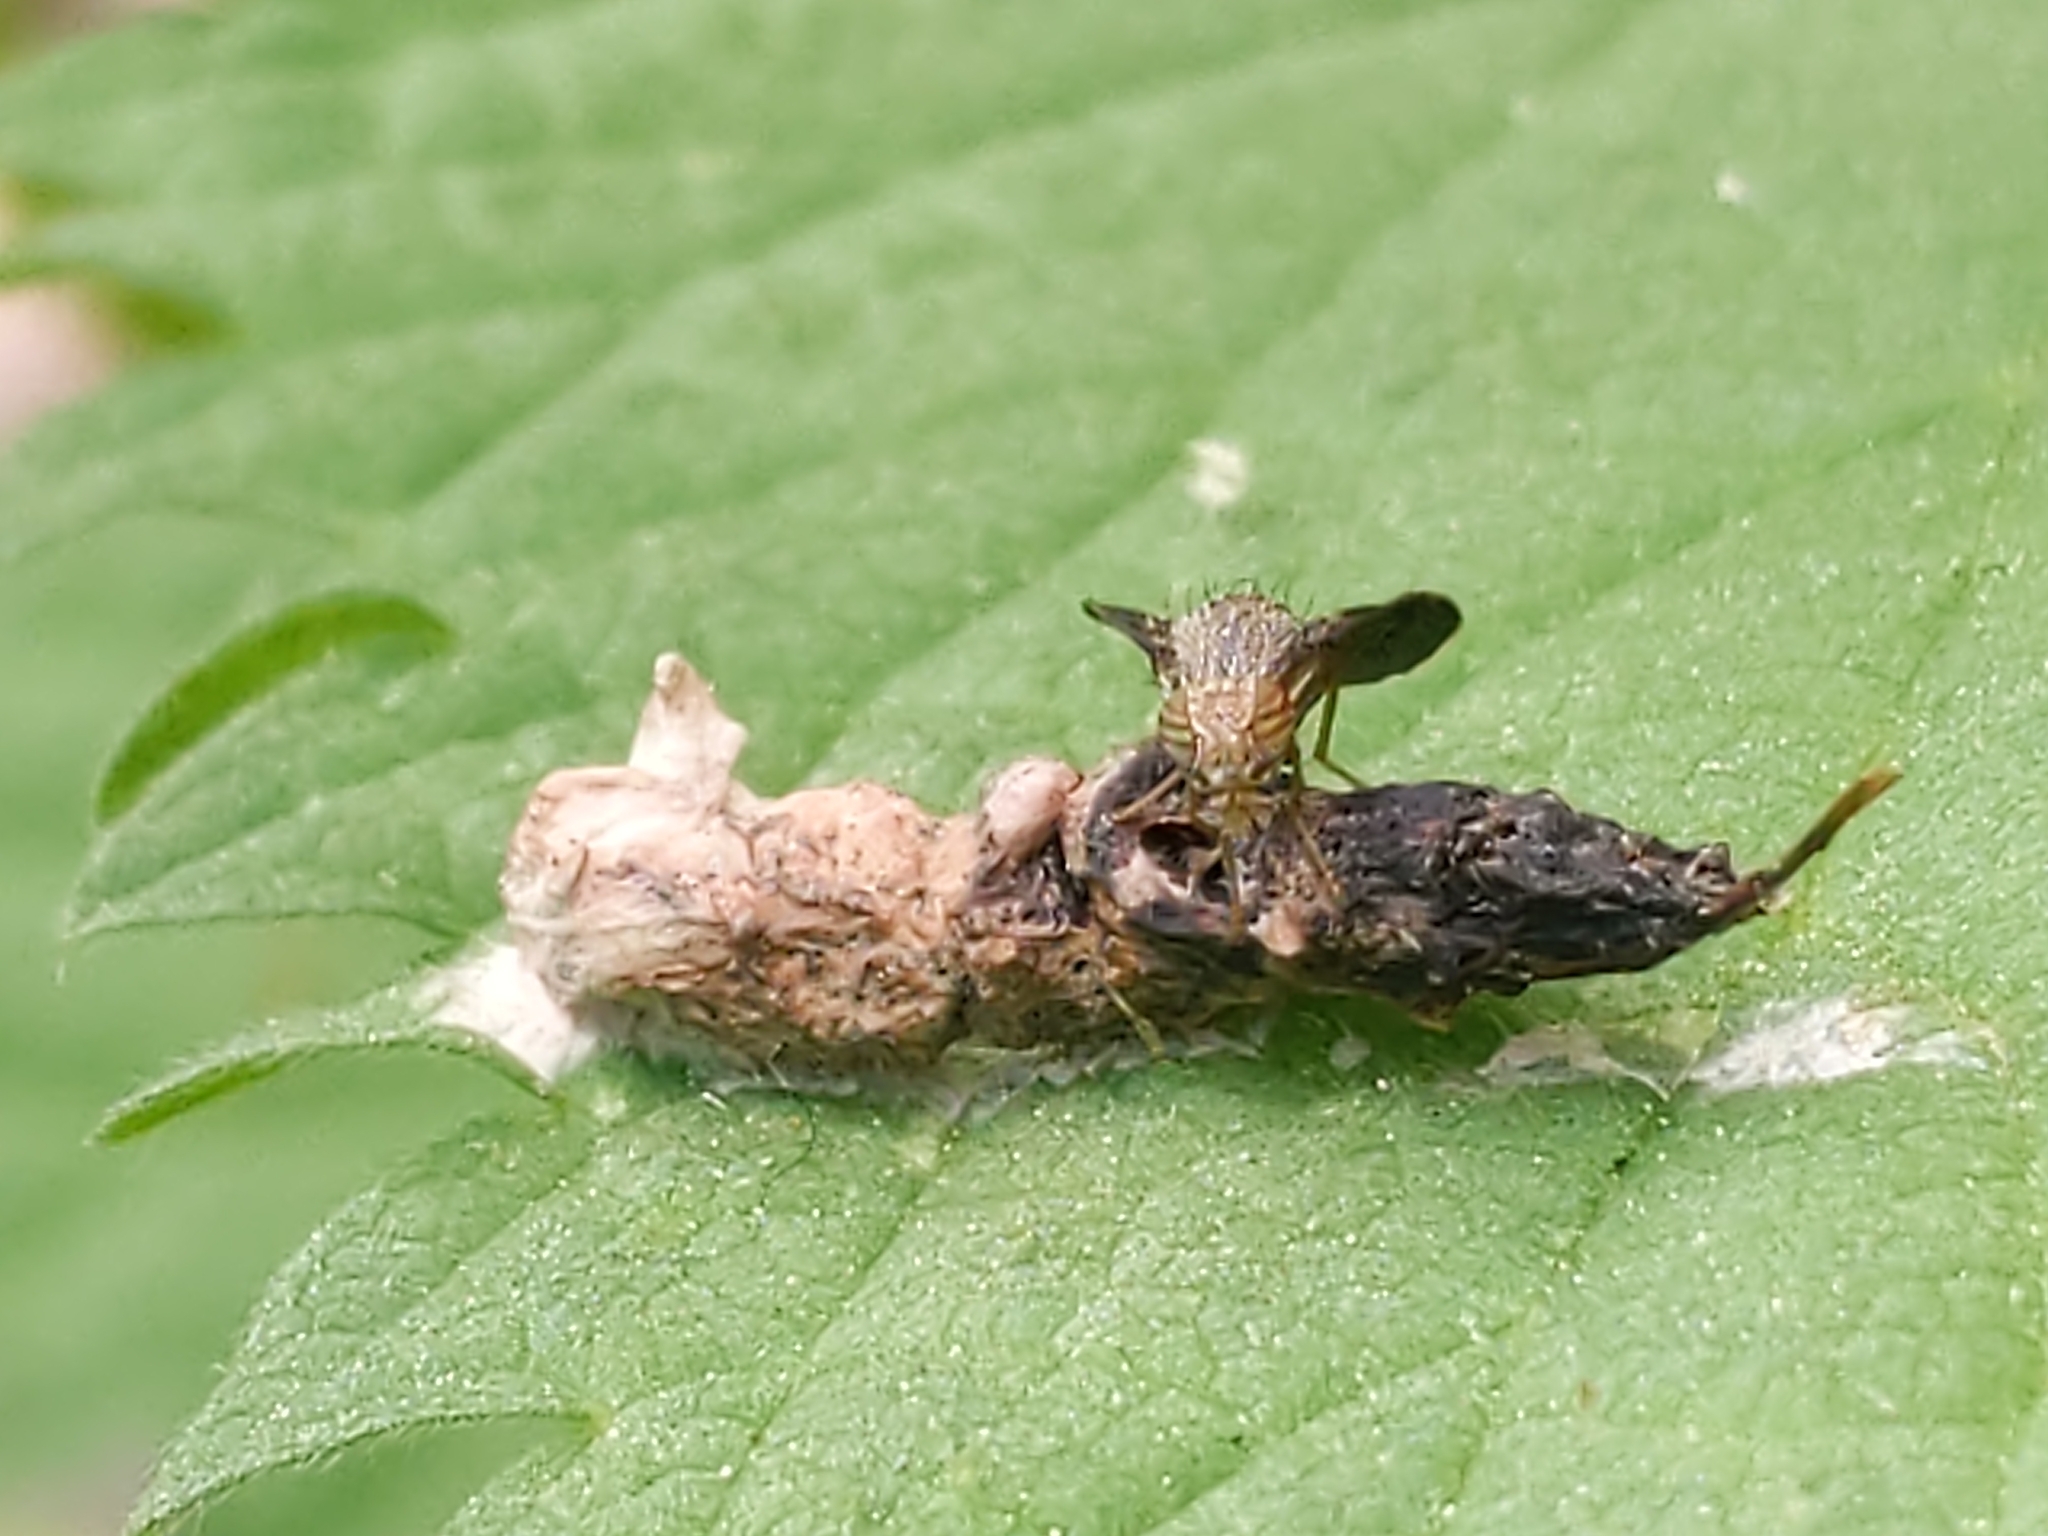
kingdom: Animalia
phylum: Arthropoda
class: Insecta
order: Diptera
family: Tephritidae
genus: Eutreta
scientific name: Eutreta
